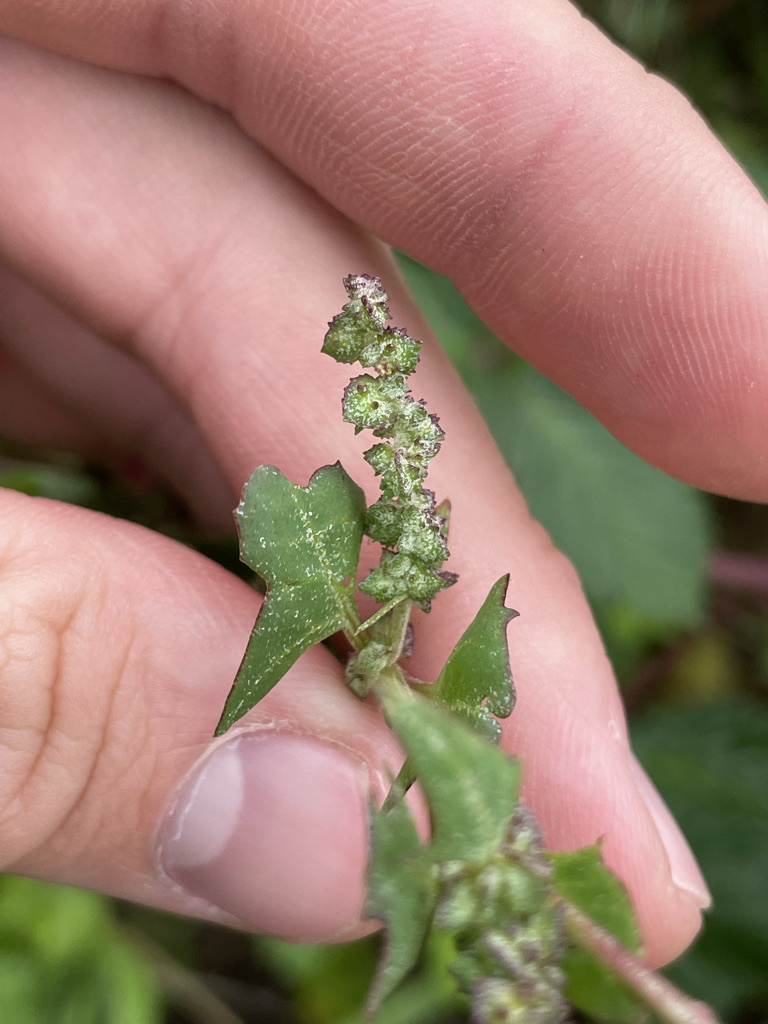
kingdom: Plantae
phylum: Tracheophyta
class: Magnoliopsida
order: Caryophyllales
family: Amaranthaceae
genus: Atriplex
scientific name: Atriplex prostrata
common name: Spear-leaved orache
